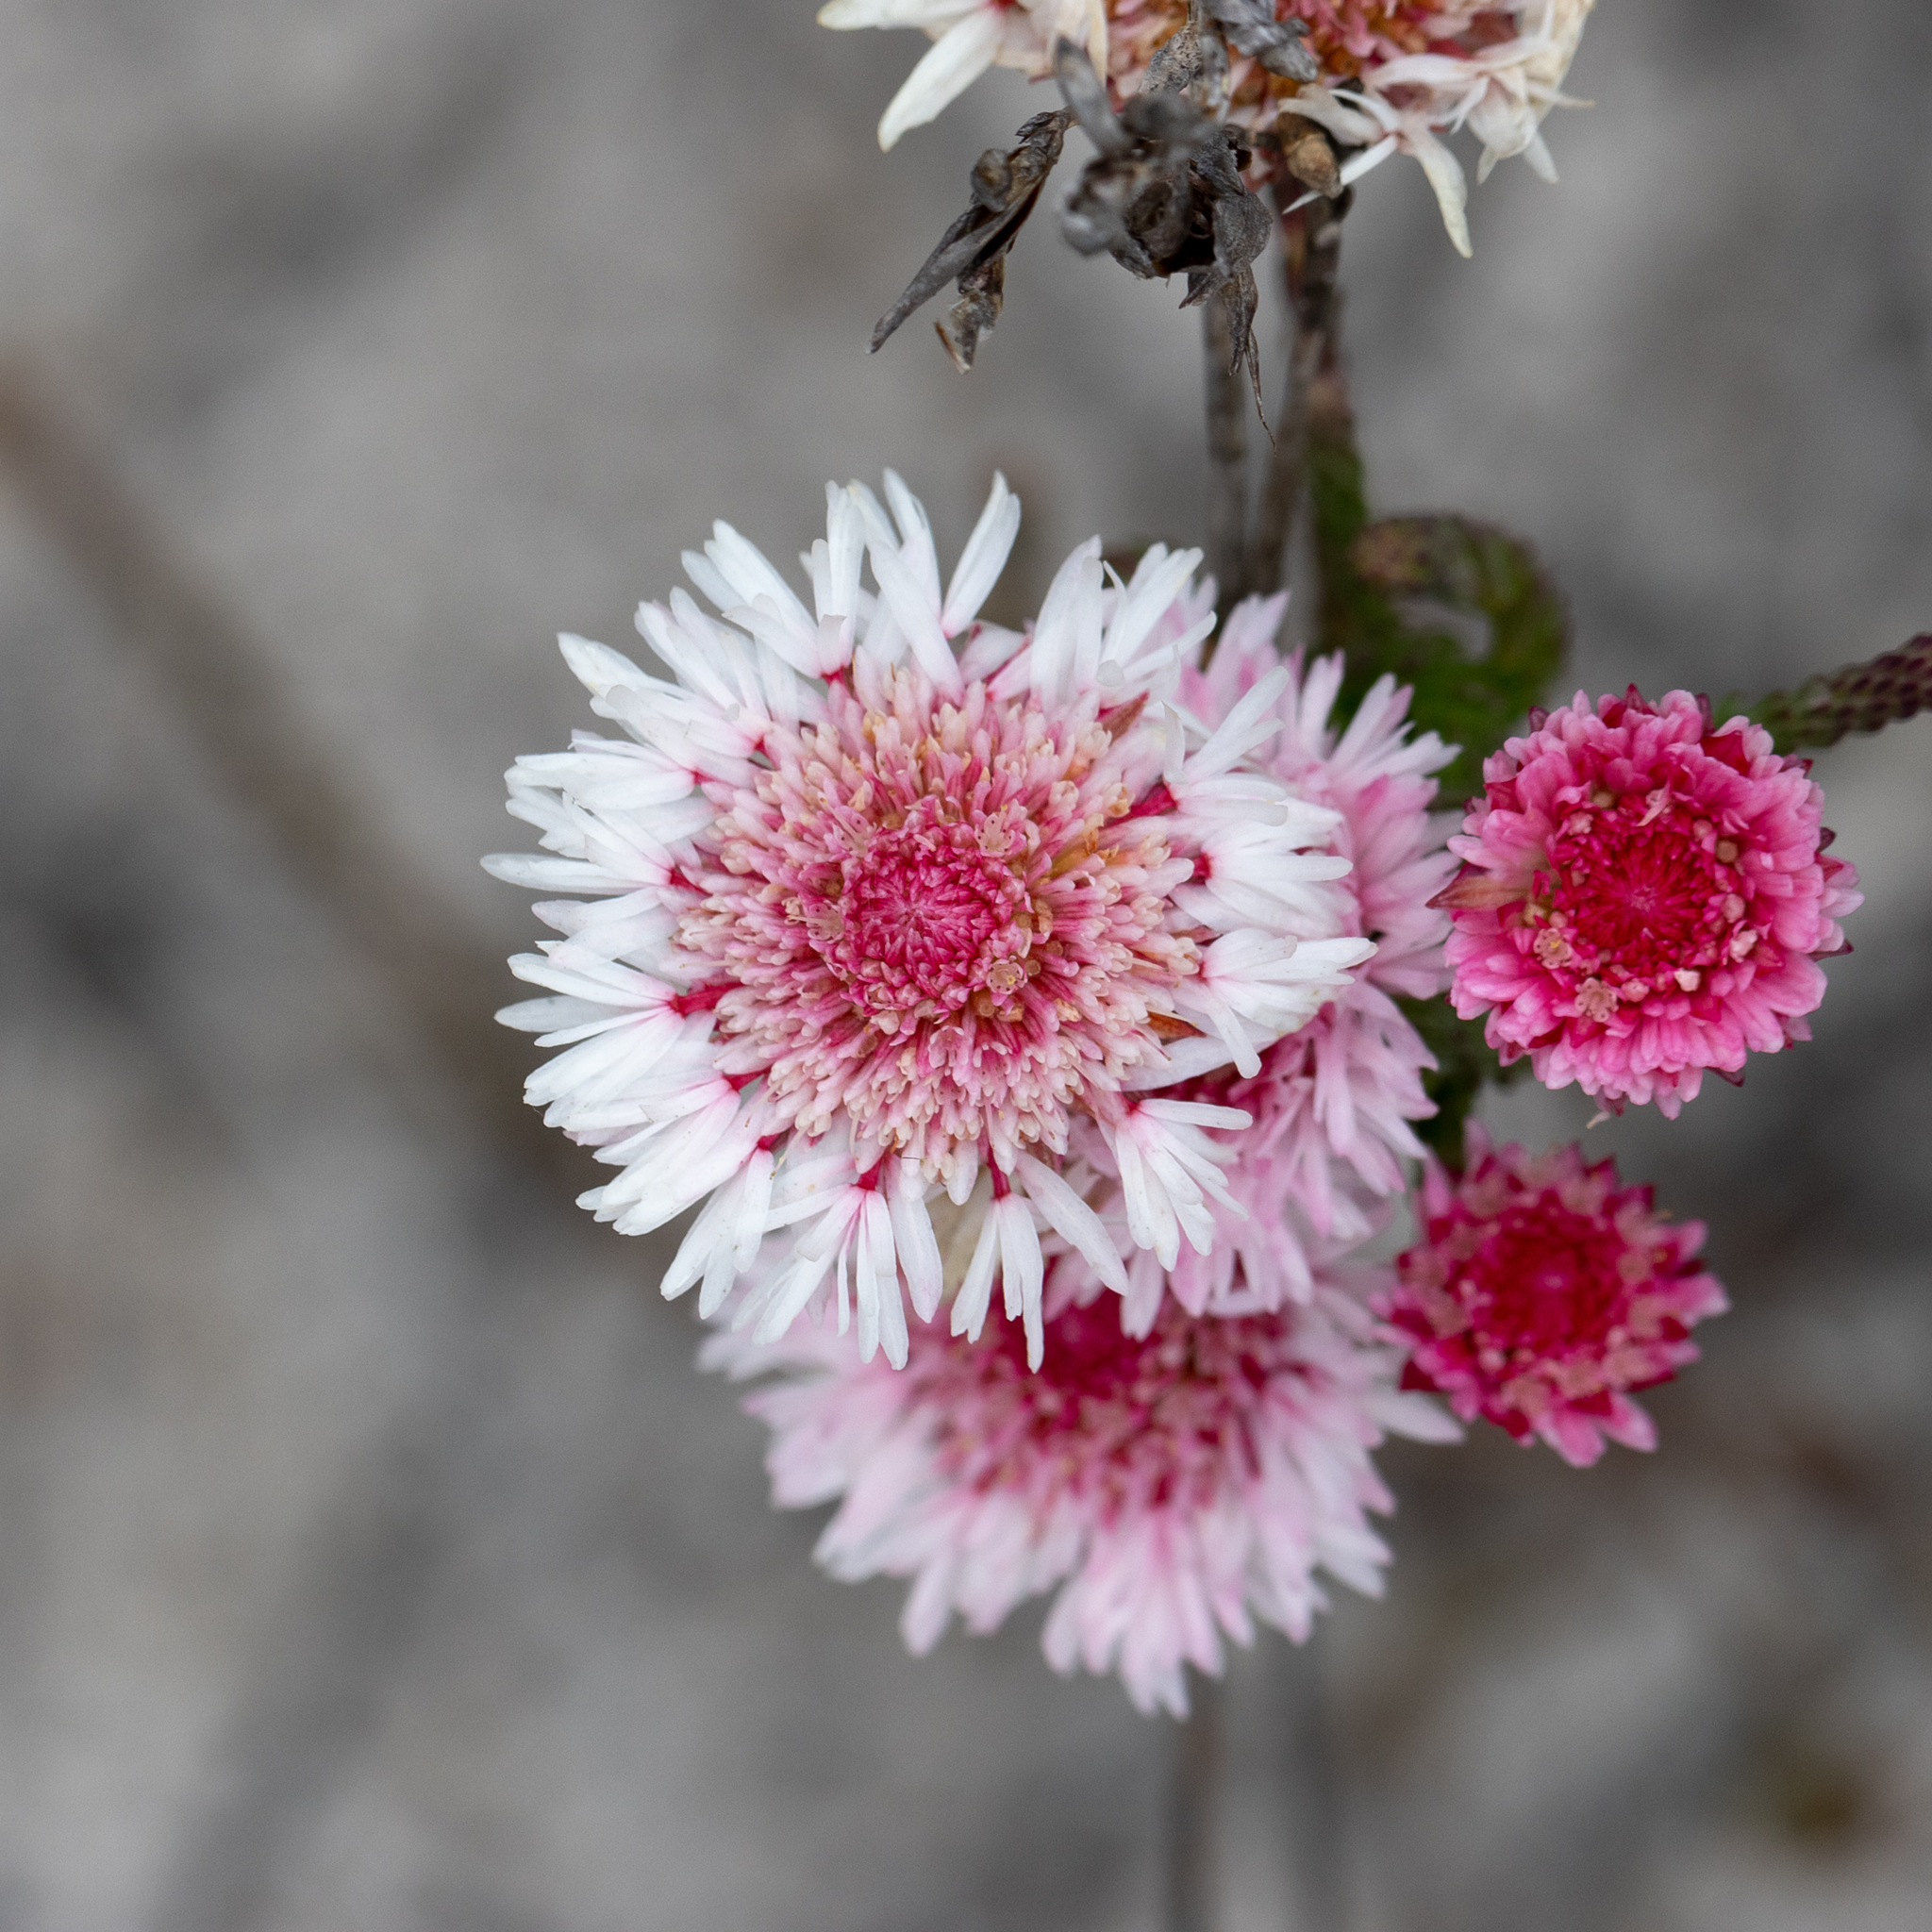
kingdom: Plantae
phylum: Tracheophyta
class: Magnoliopsida
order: Myrtales
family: Myrtaceae
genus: Actinodium
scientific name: Actinodium cunninghamii
